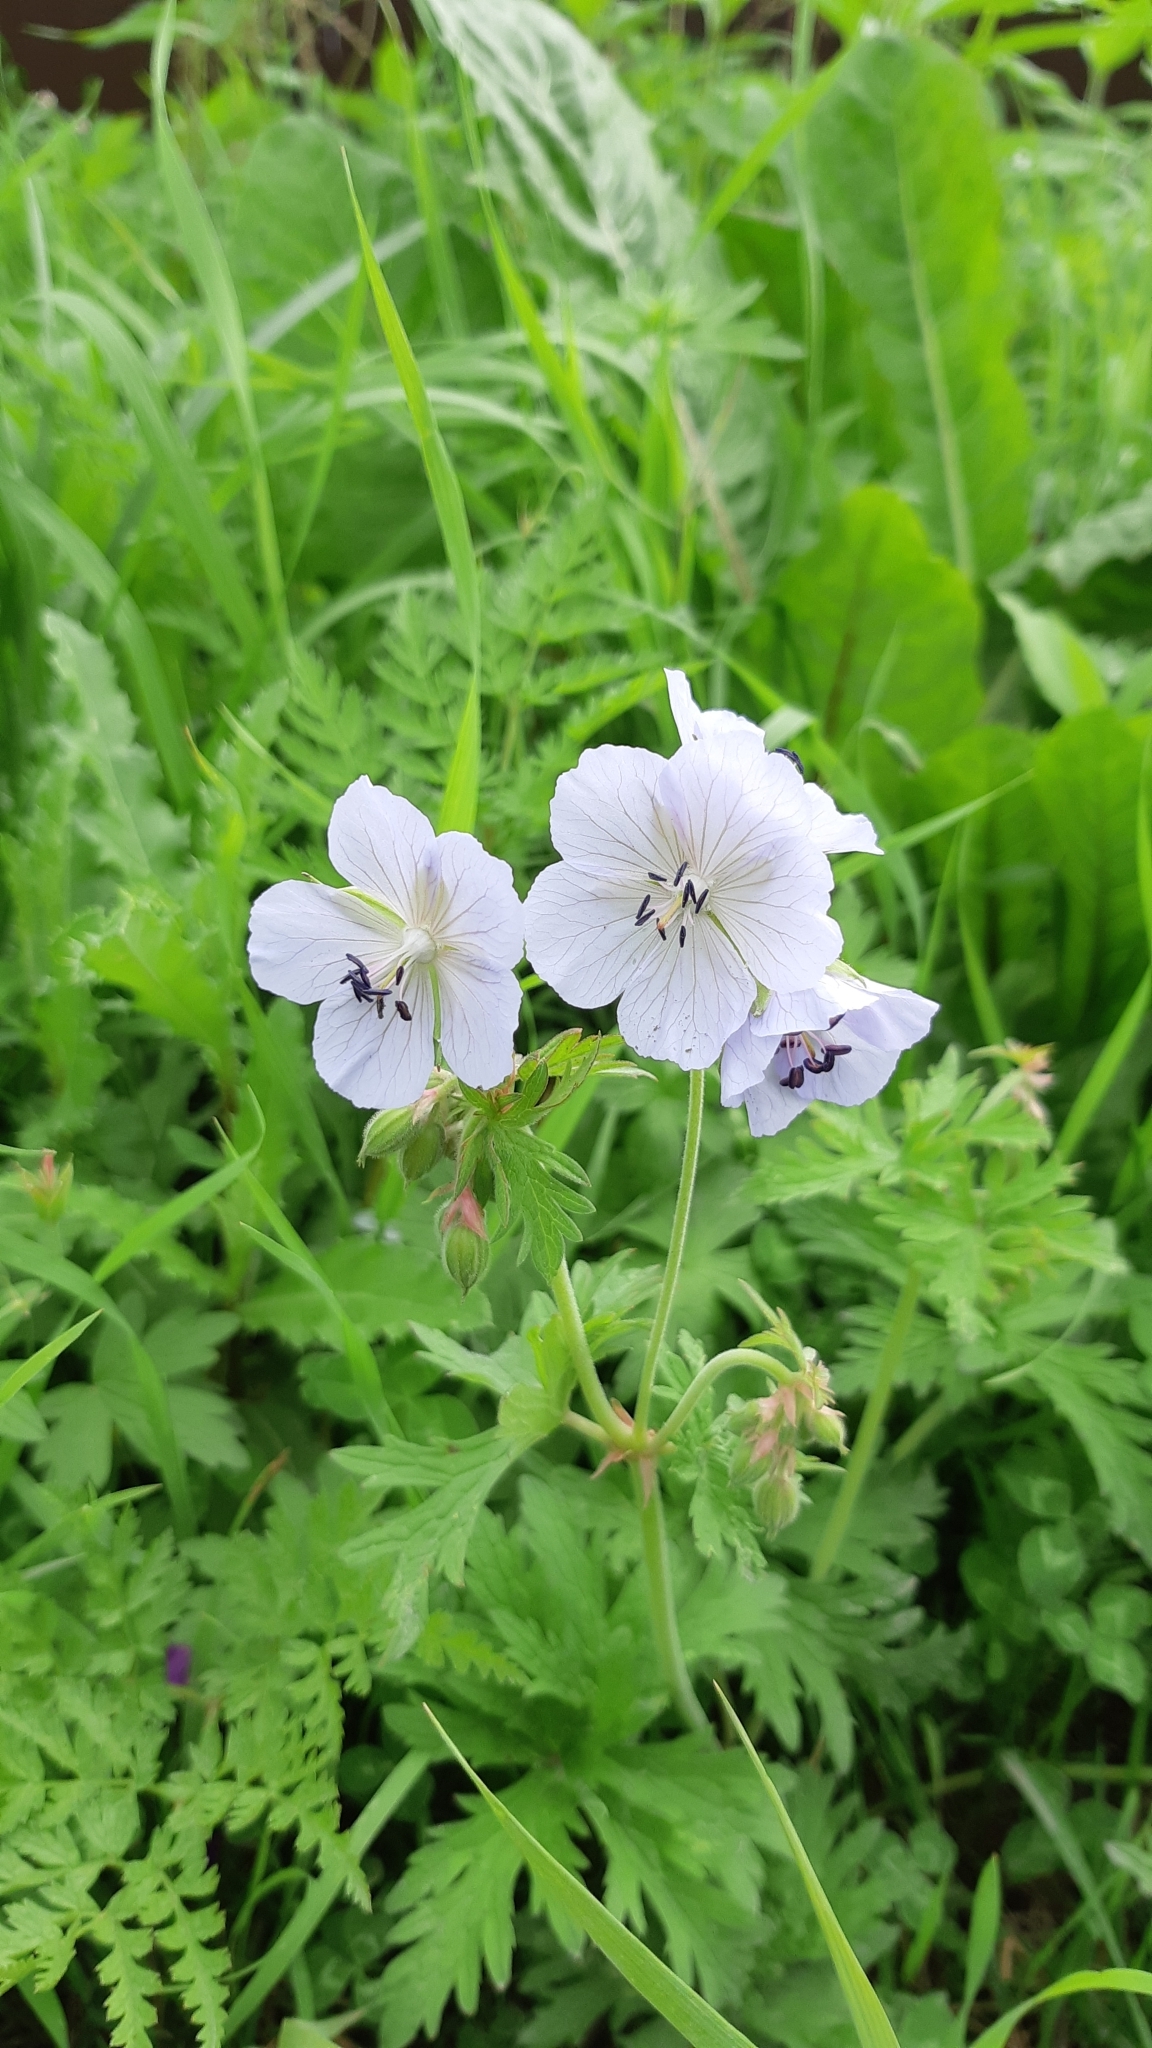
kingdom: Plantae
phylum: Tracheophyta
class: Magnoliopsida
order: Geraniales
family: Geraniaceae
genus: Geranium
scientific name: Geranium pratense
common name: Meadow crane's-bill
